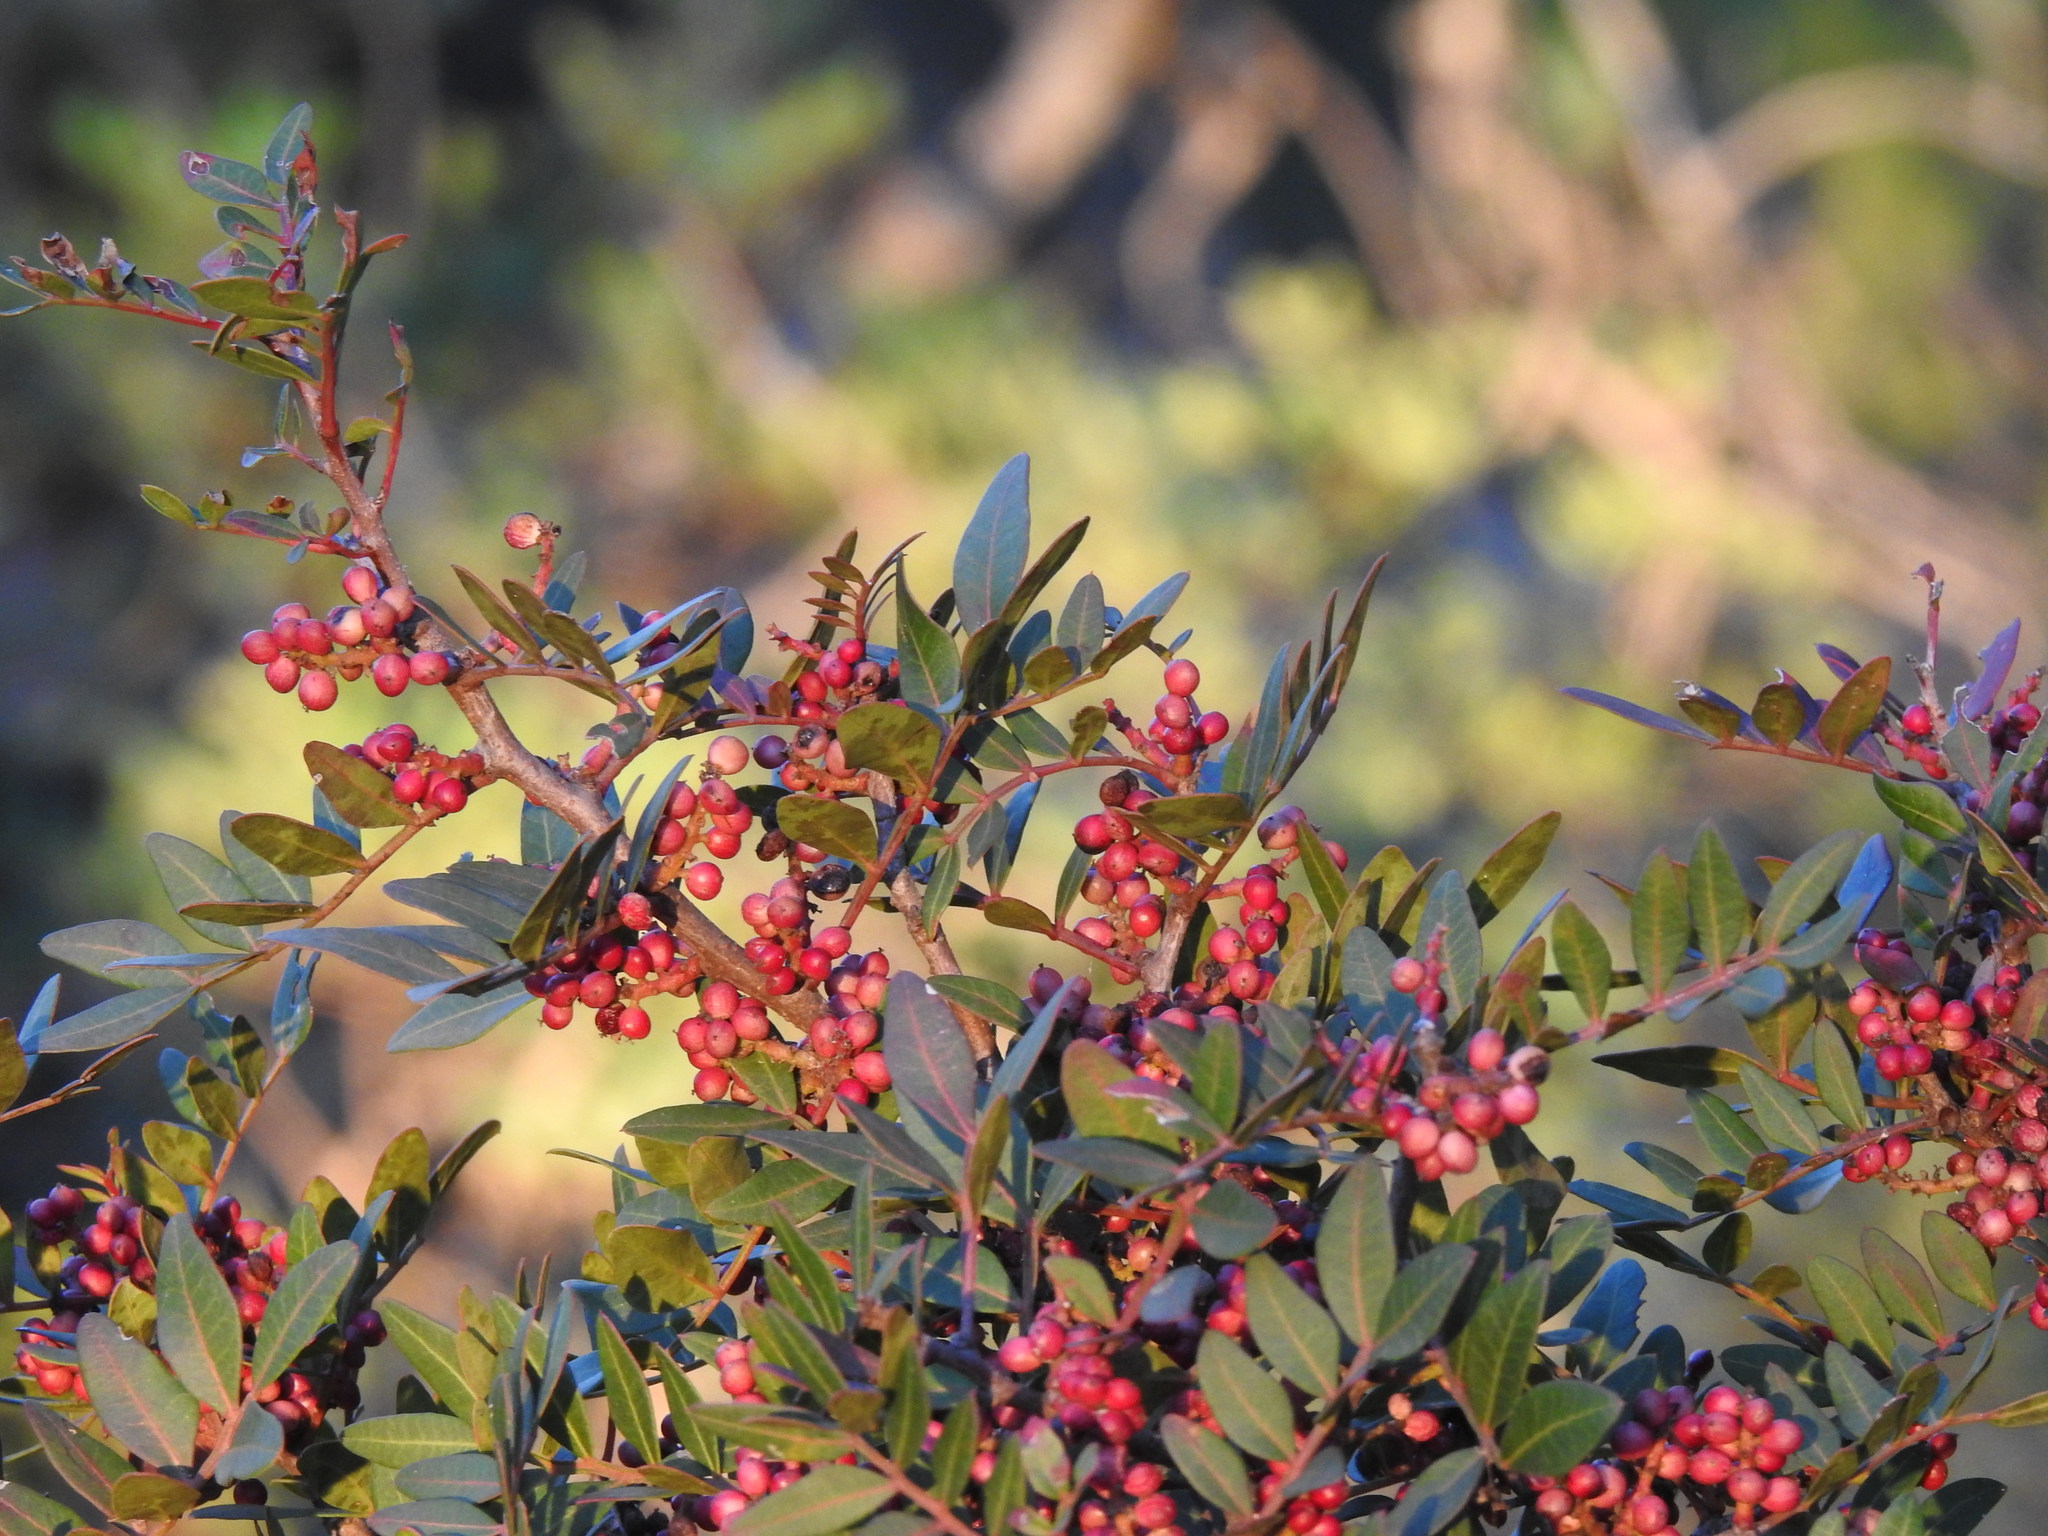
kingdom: Plantae
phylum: Tracheophyta
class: Magnoliopsida
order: Sapindales
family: Anacardiaceae
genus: Pistacia
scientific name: Pistacia lentiscus
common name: Lentisk
